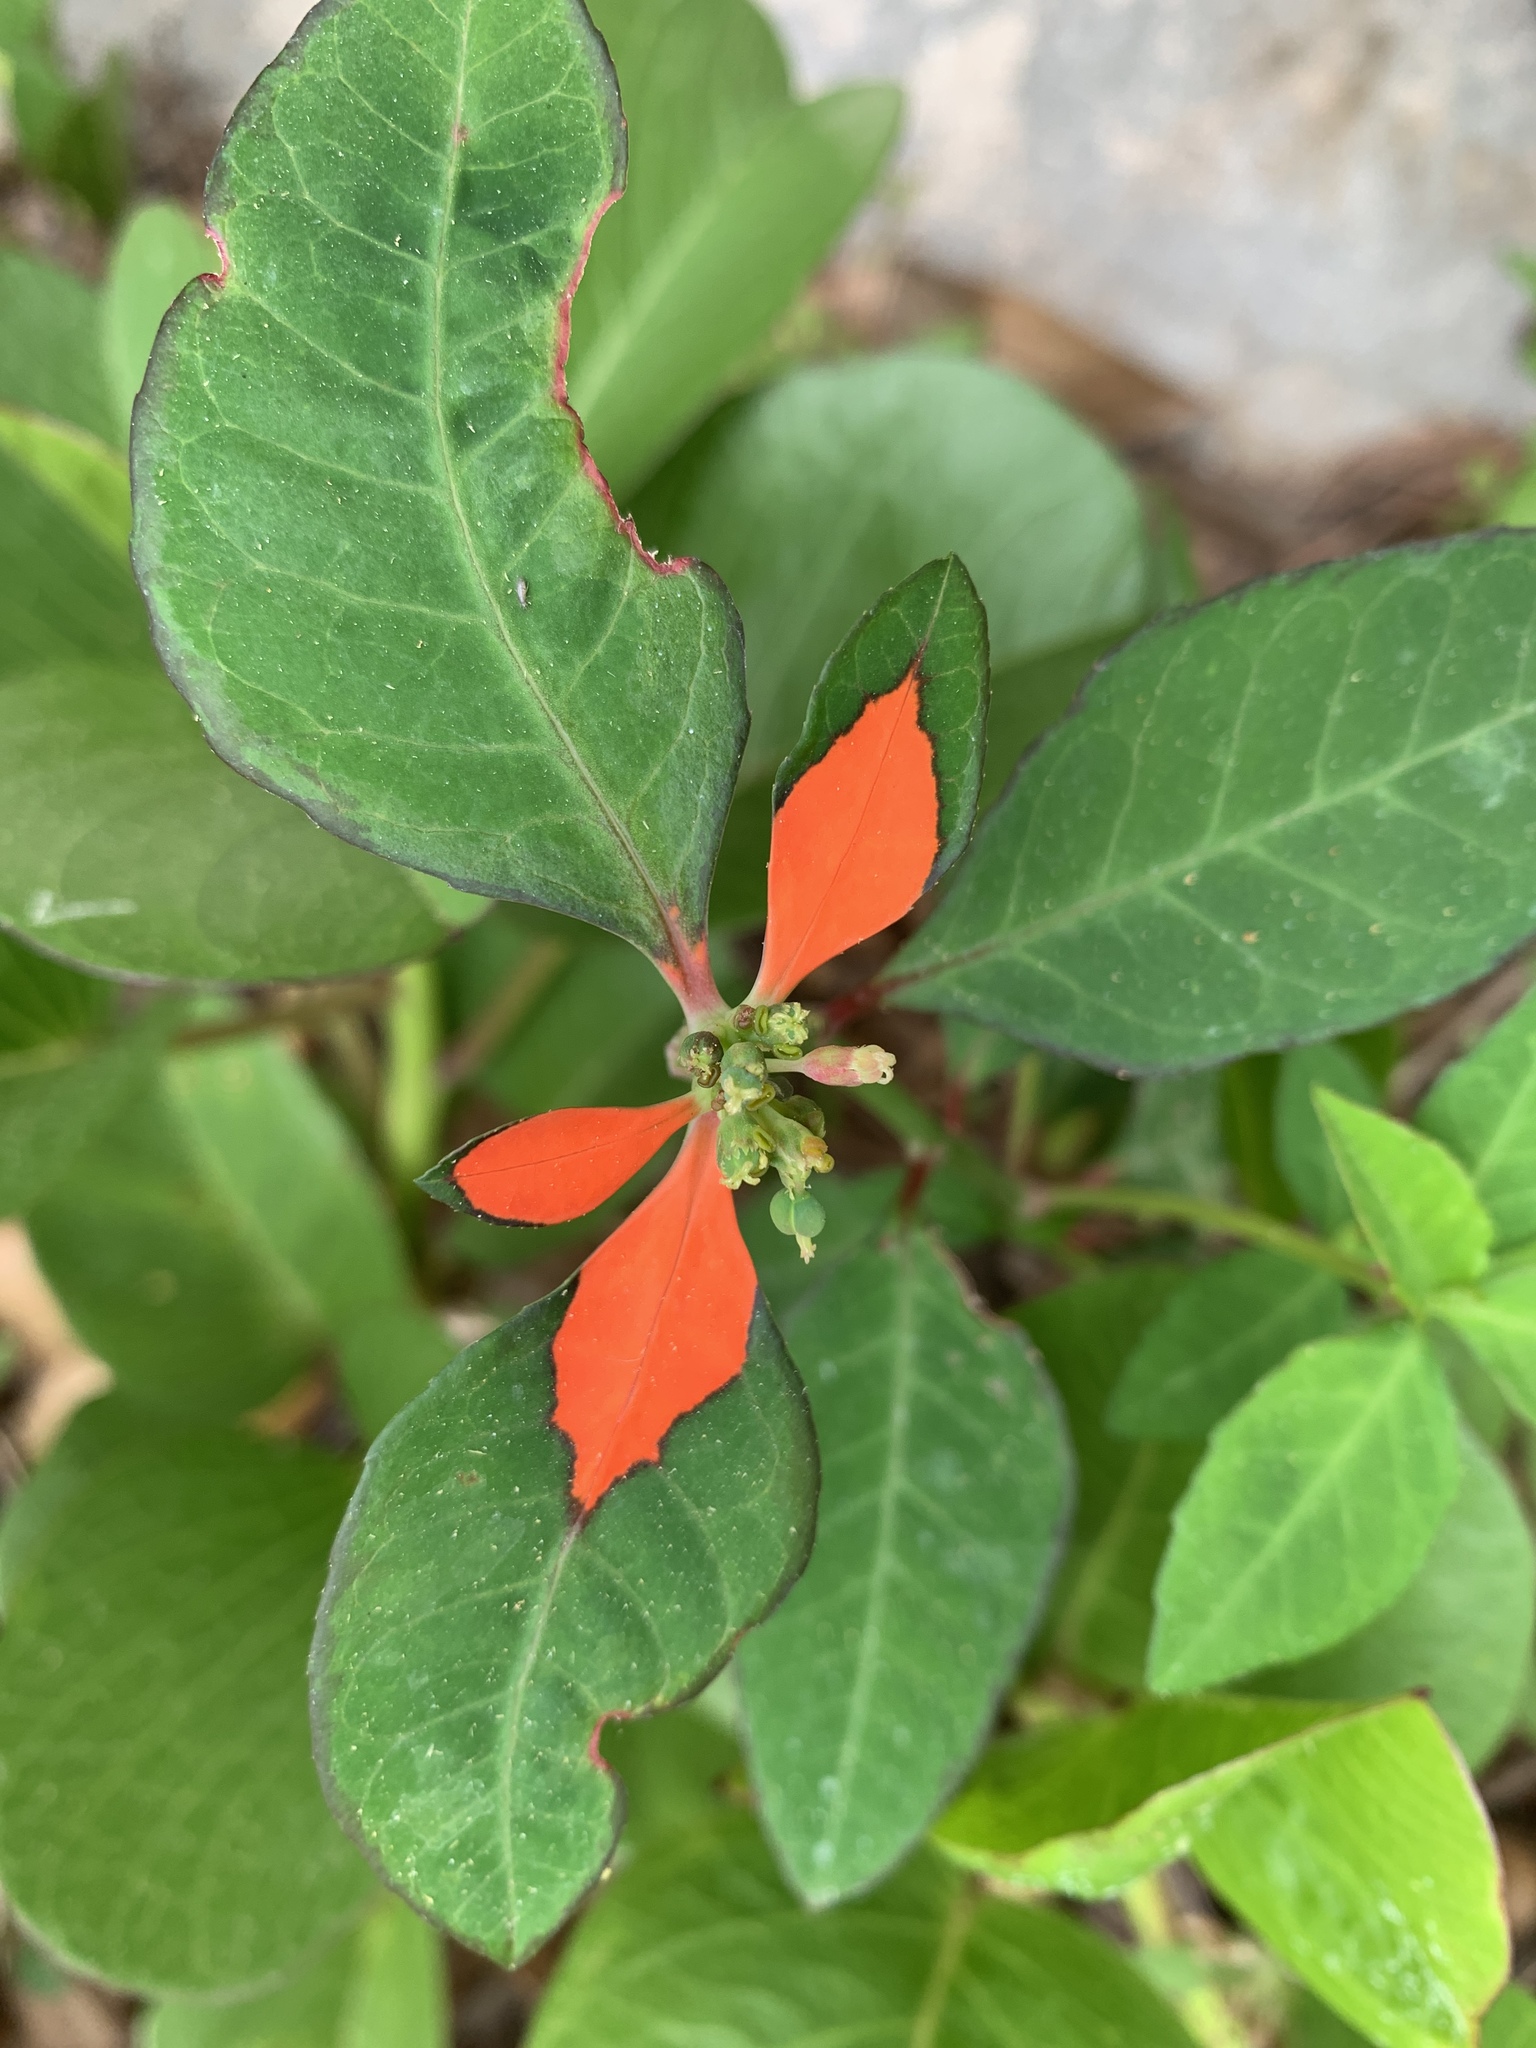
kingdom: Plantae
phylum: Tracheophyta
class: Magnoliopsida
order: Malpighiales
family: Euphorbiaceae
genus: Euphorbia
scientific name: Euphorbia heterophylla
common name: Mexican fireplant
